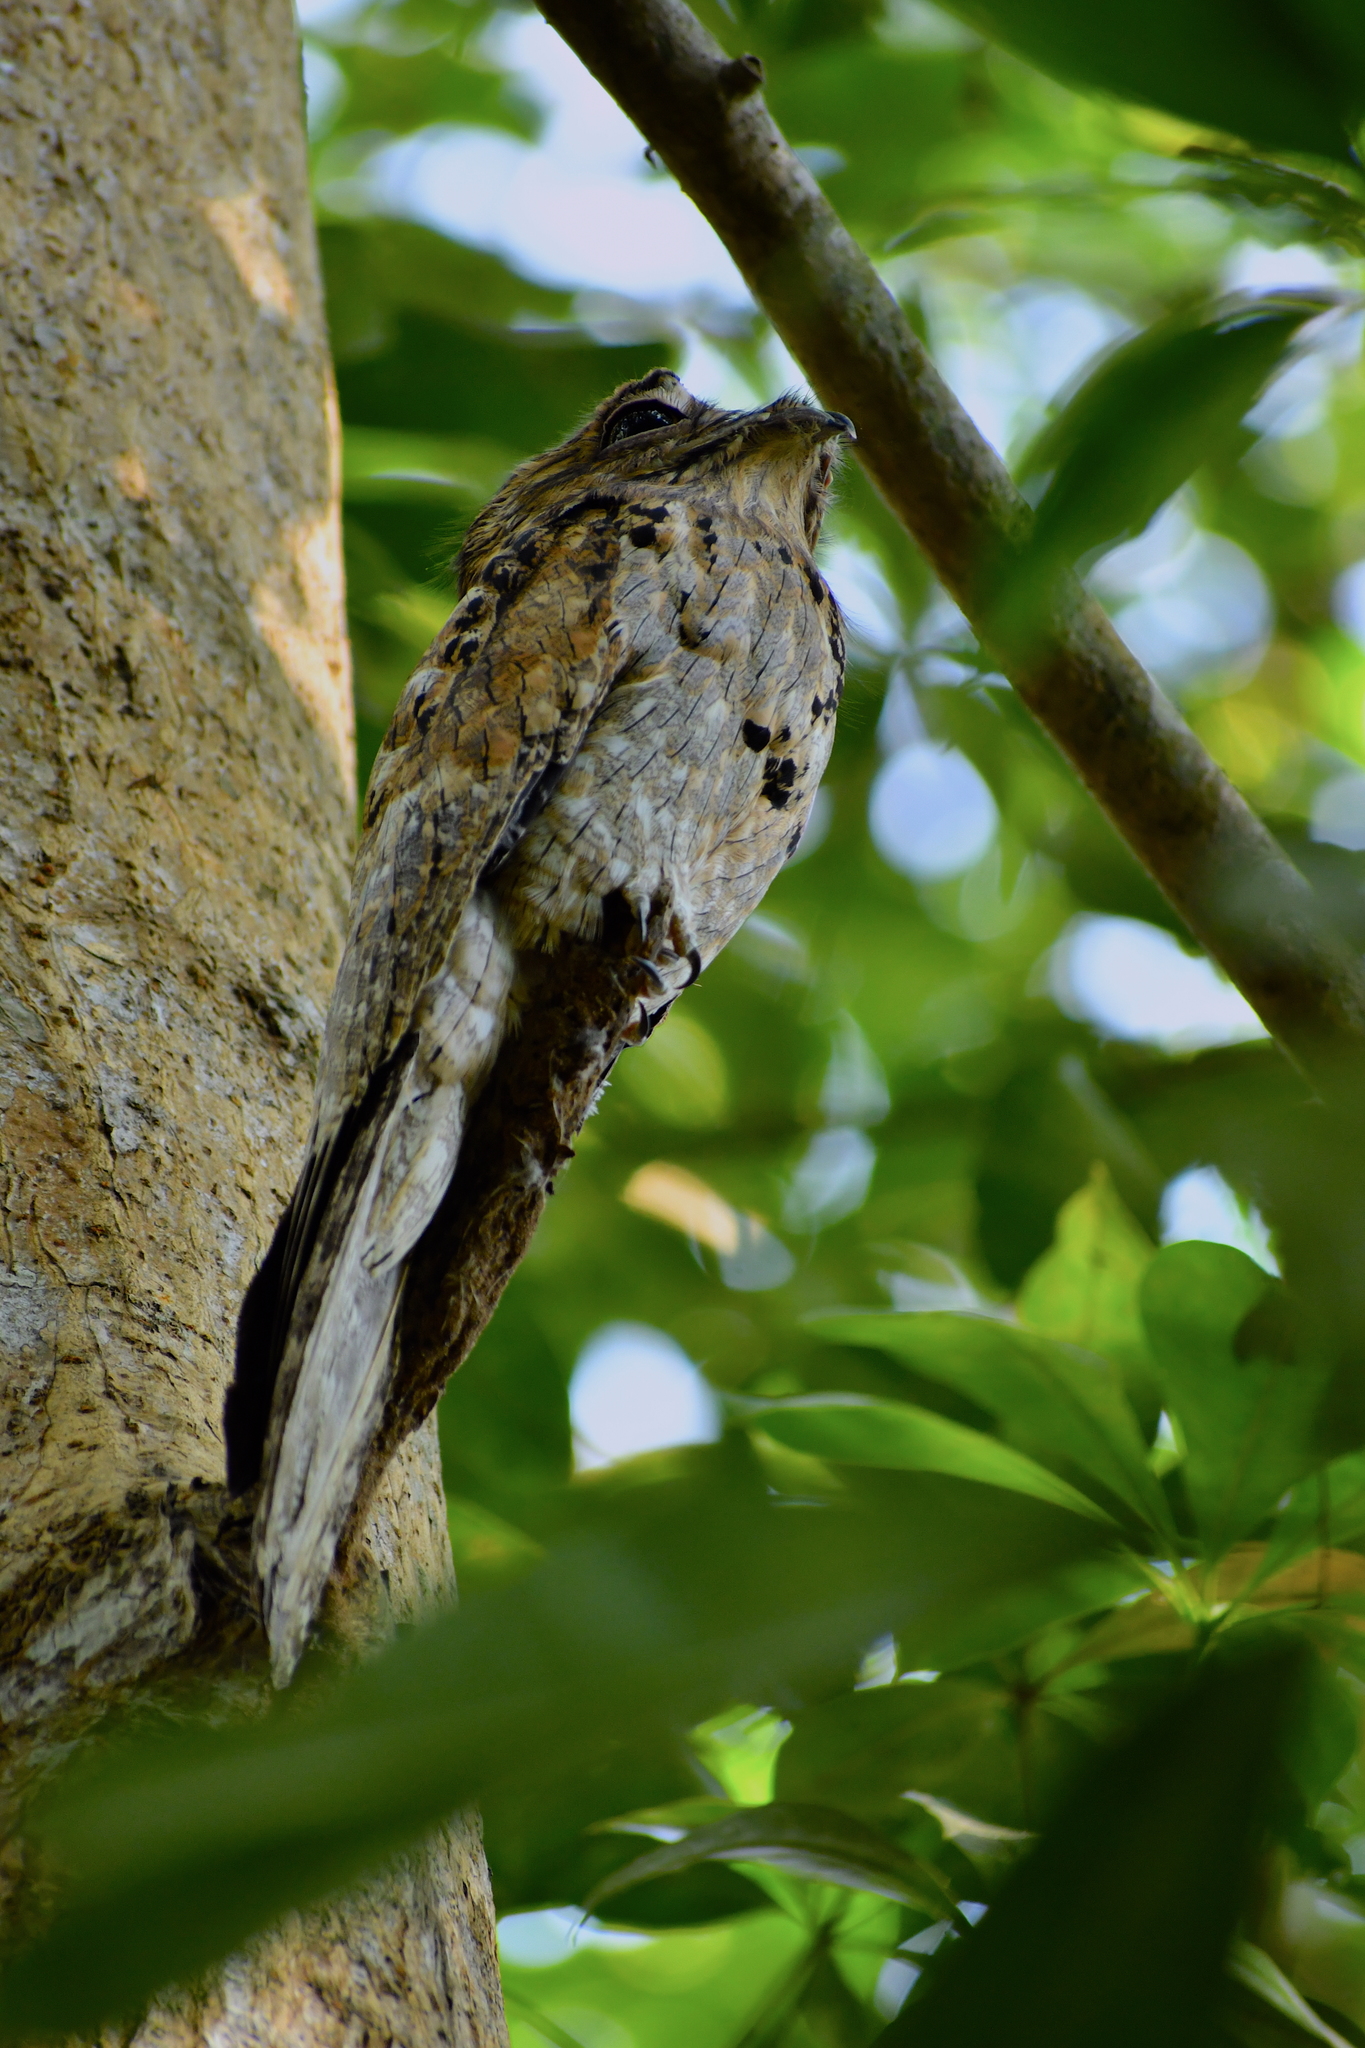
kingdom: Animalia
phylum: Chordata
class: Aves
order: Nyctibiiformes
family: Nyctibiidae
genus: Nyctibius
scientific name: Nyctibius jamaicensis
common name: Northern potoo
